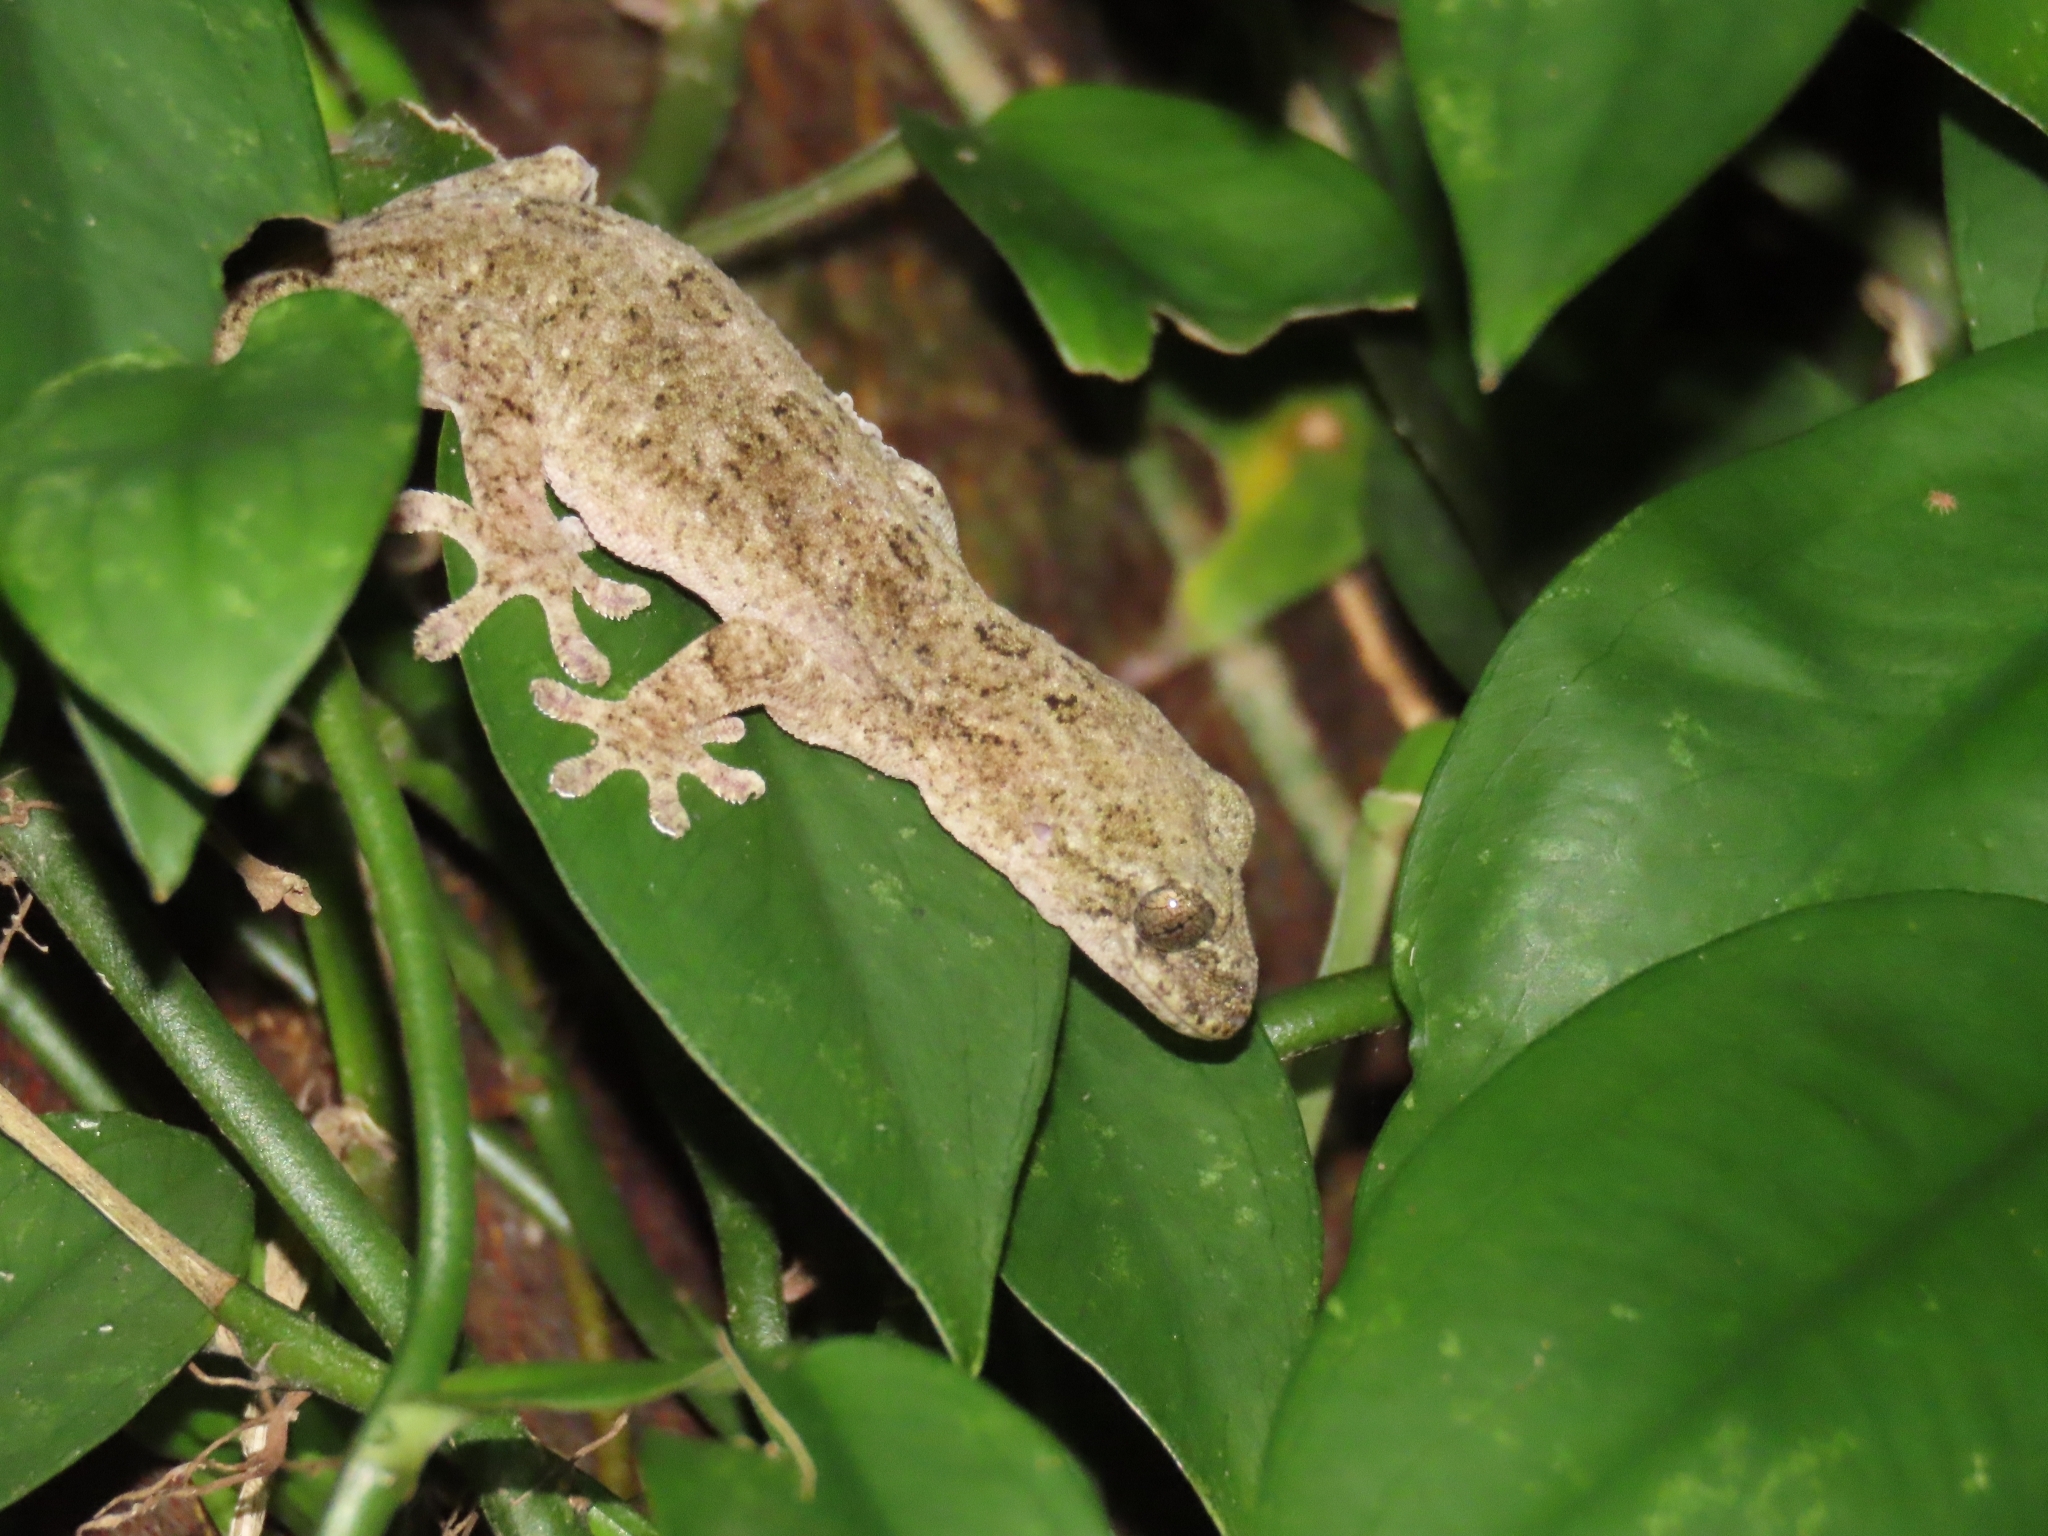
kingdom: Animalia
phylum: Chordata
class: Squamata
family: Gekkonidae
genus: Gekko
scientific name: Gekko hokouensis
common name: Kwangsi gecko
